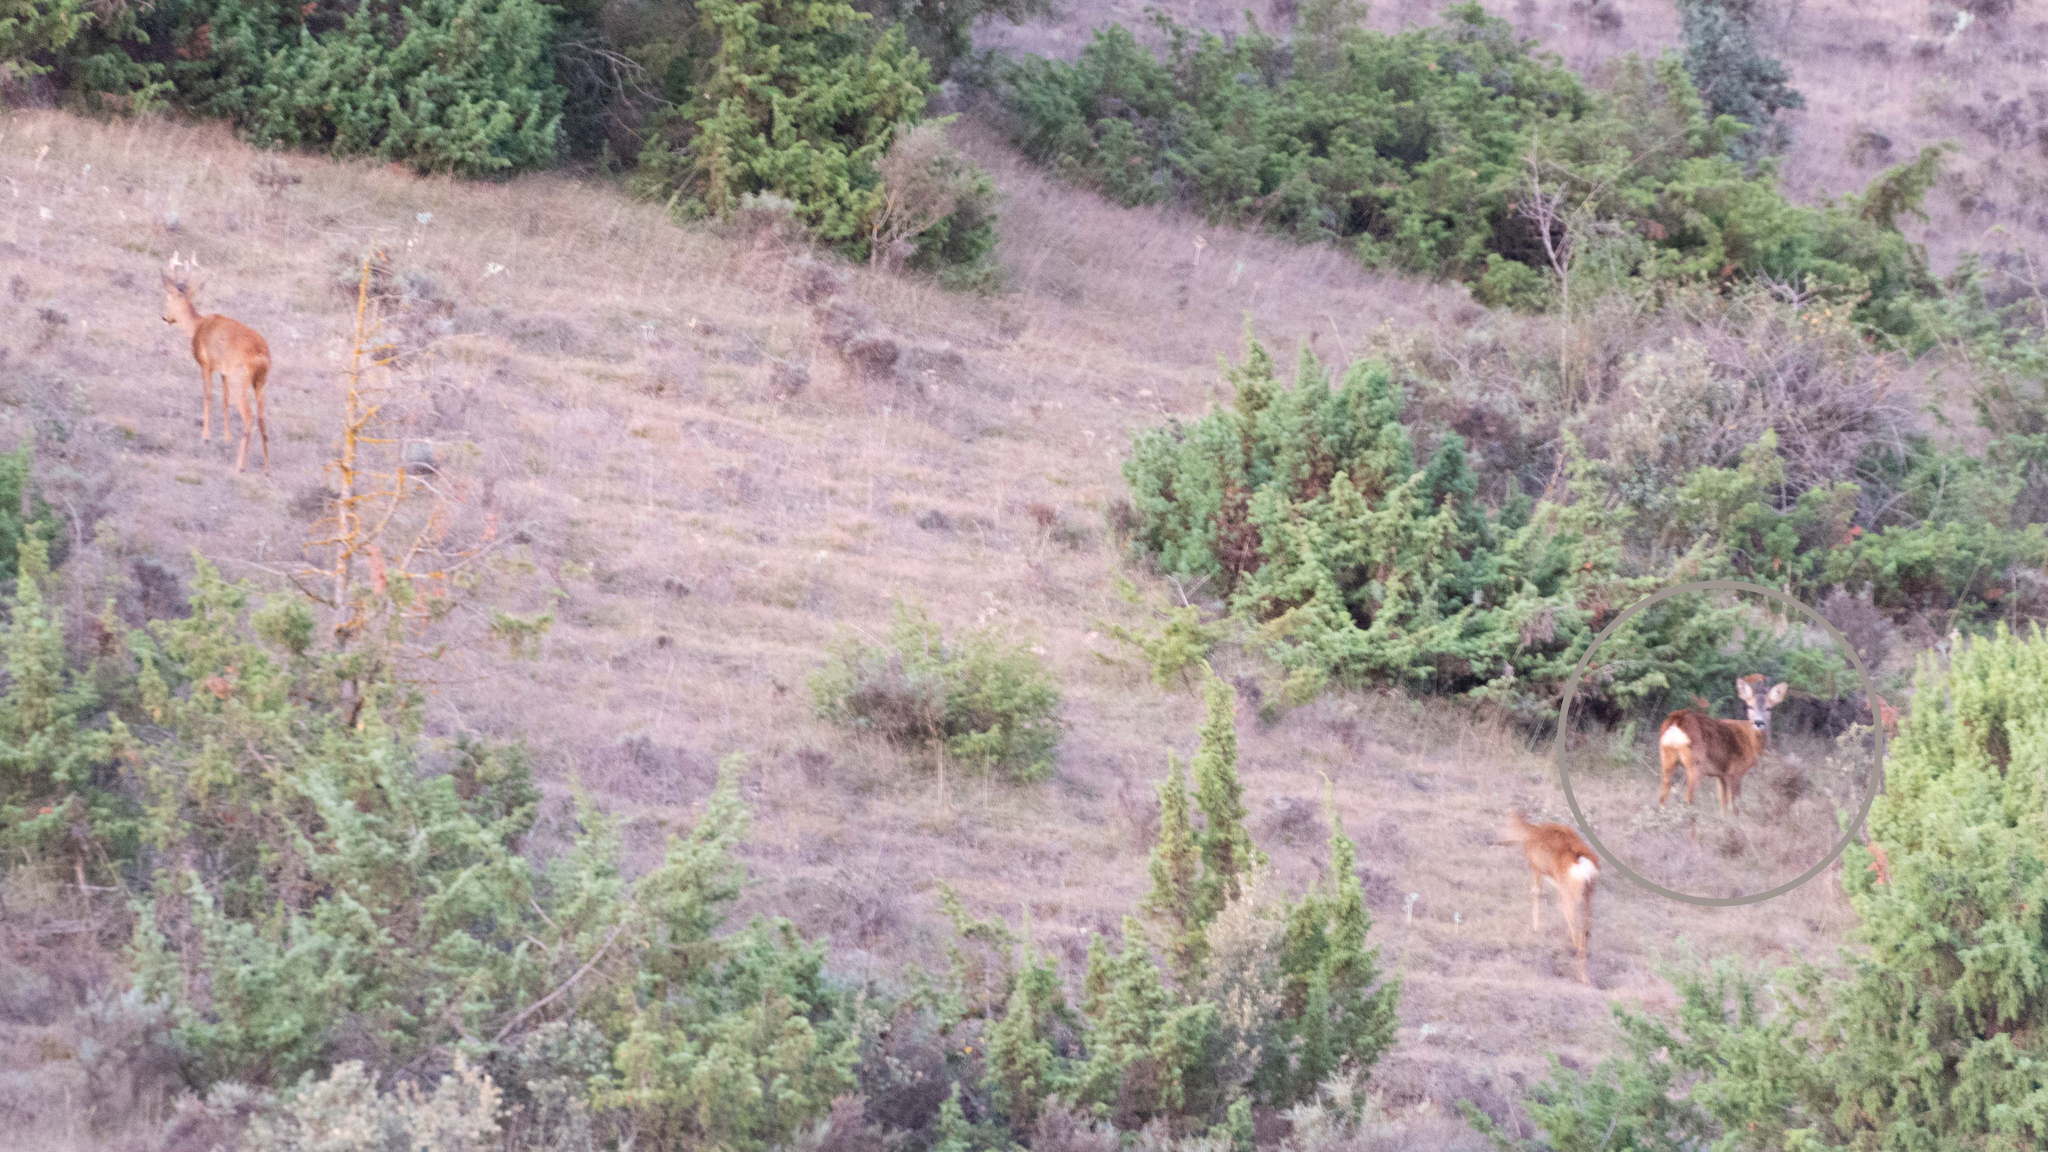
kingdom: Animalia
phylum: Chordata
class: Mammalia
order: Artiodactyla
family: Cervidae
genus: Capreolus
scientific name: Capreolus capreolus
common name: Western roe deer
